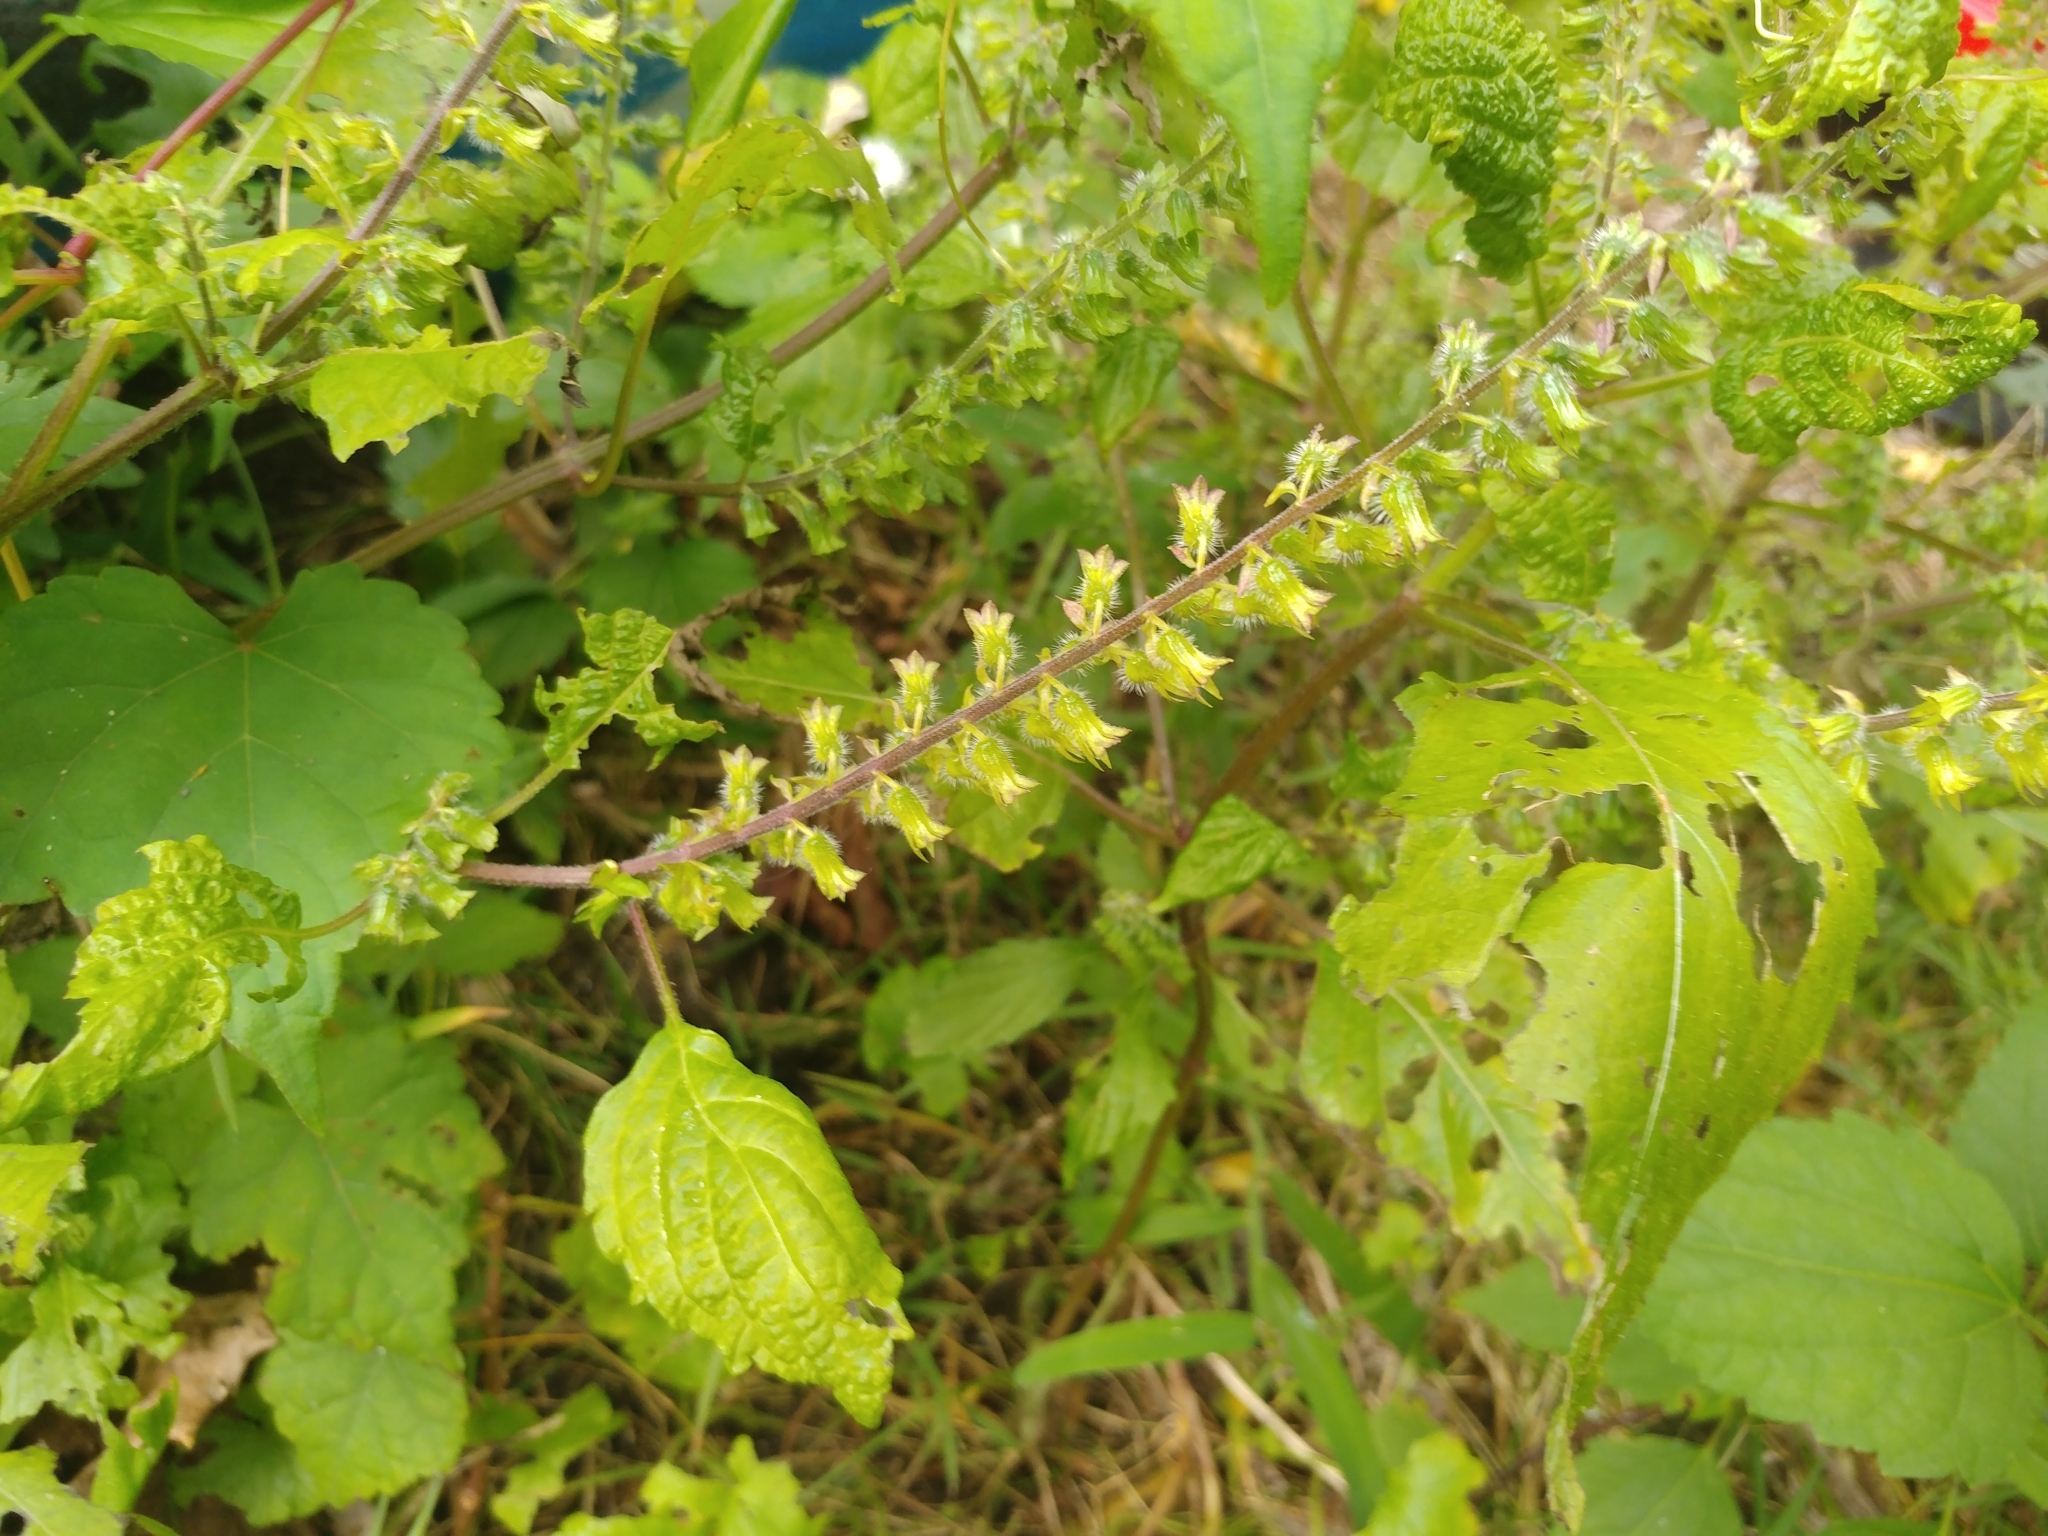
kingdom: Plantae
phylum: Tracheophyta
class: Magnoliopsida
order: Lamiales
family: Lamiaceae
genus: Perilla
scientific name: Perilla frutescens
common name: Perilla
